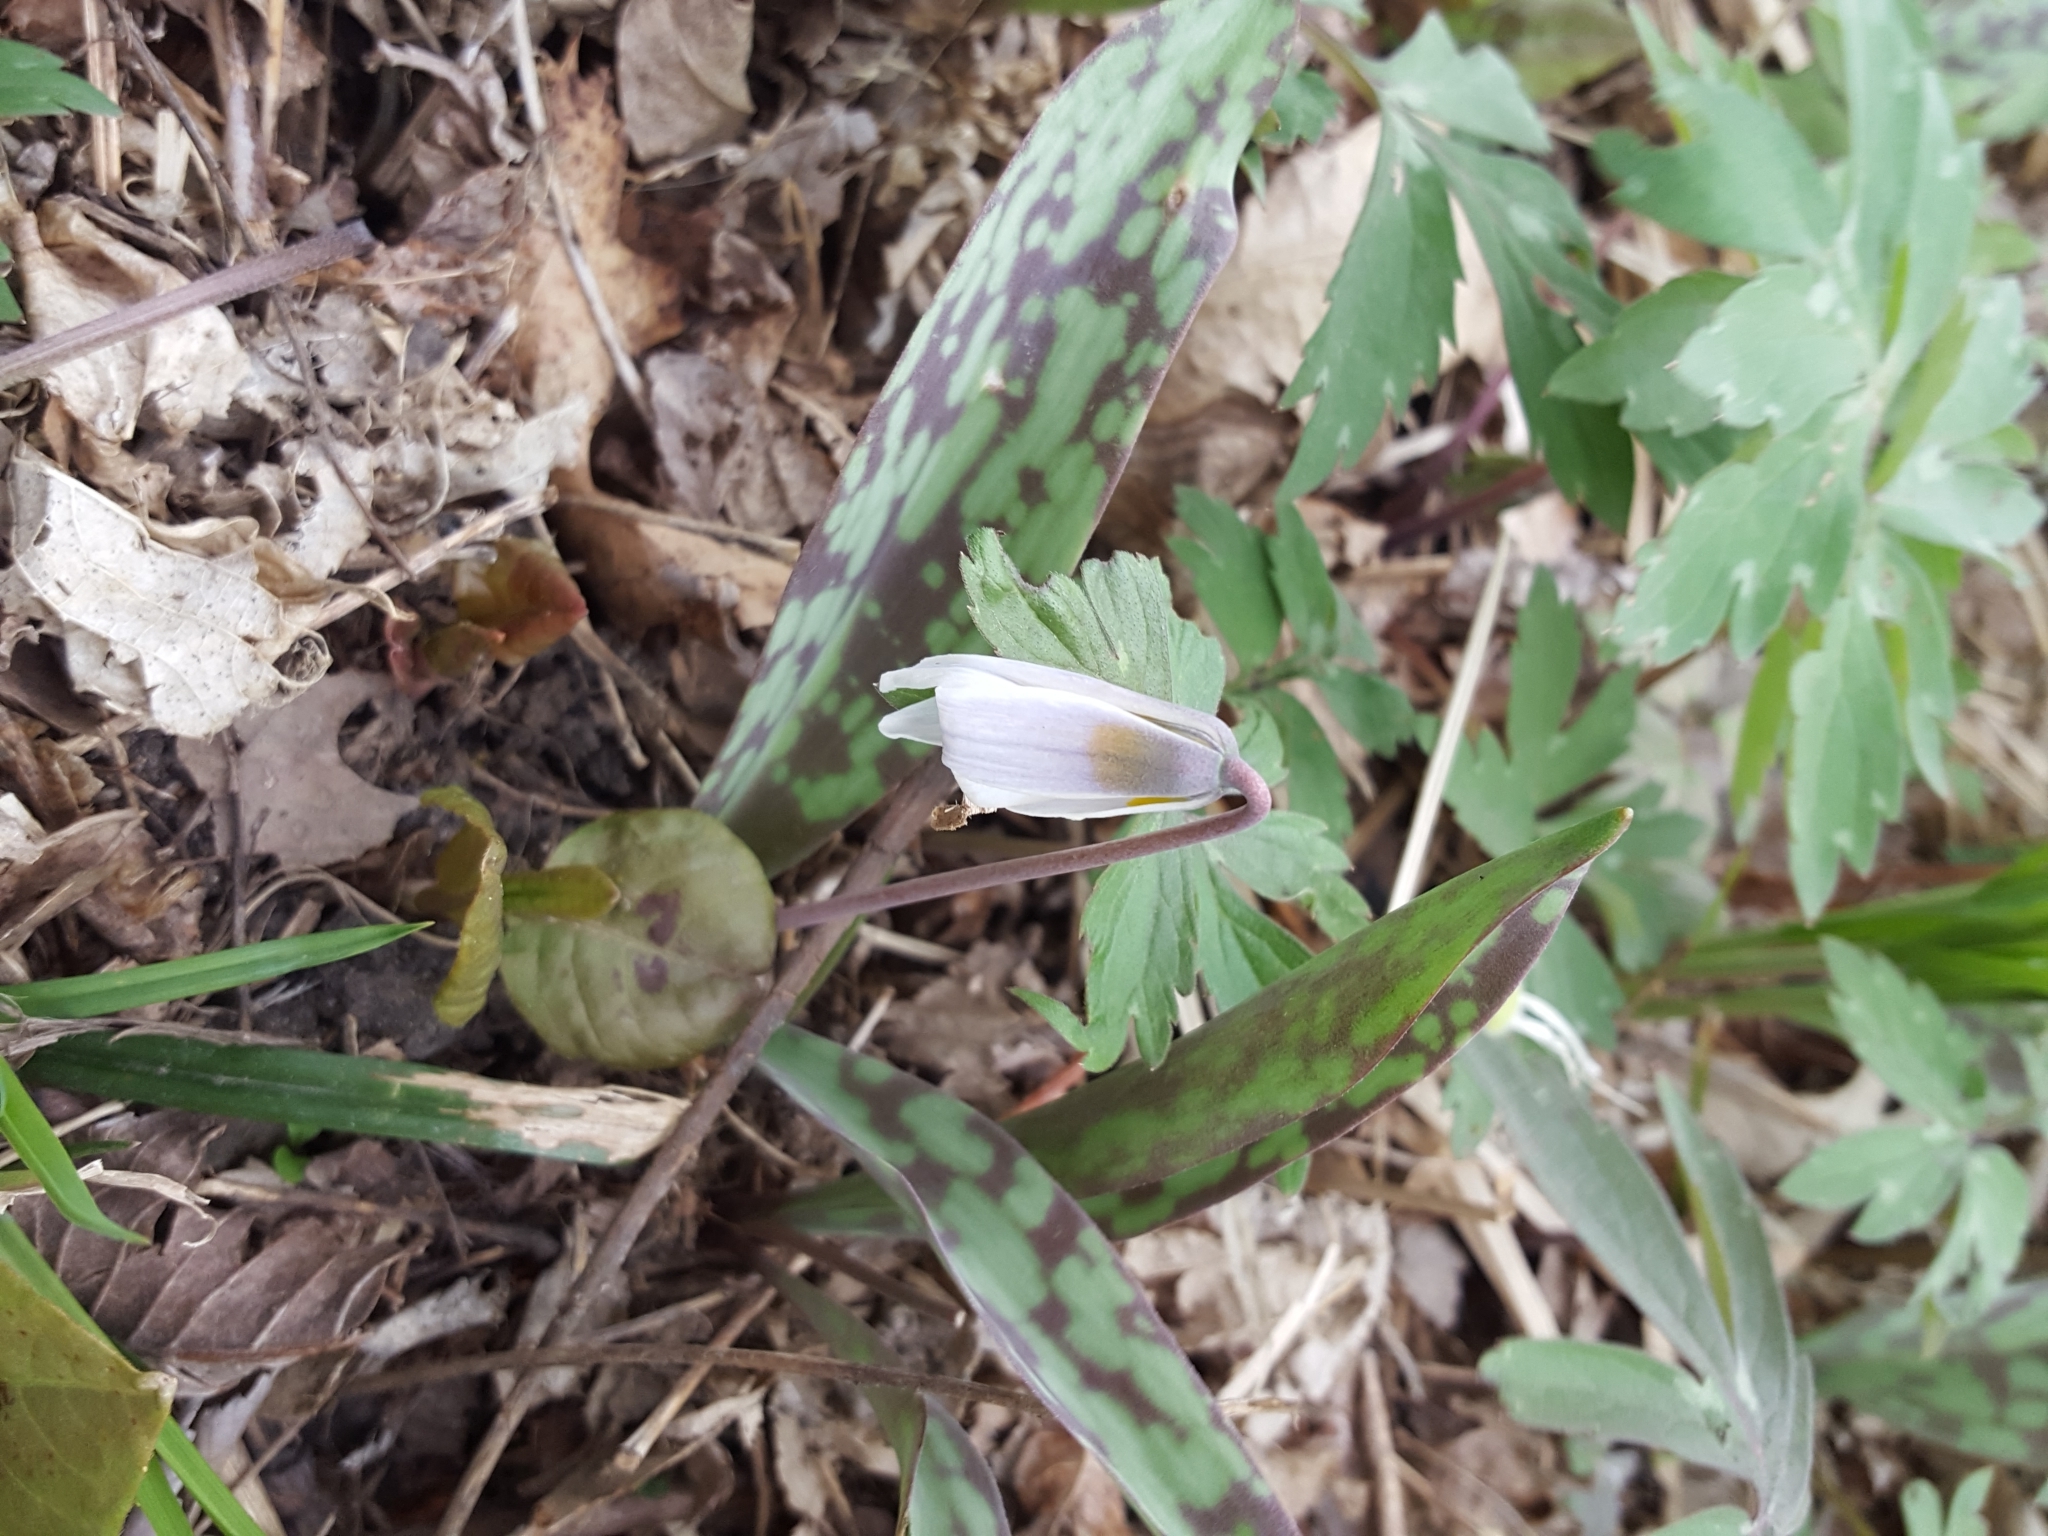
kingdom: Plantae
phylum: Tracheophyta
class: Liliopsida
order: Liliales
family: Liliaceae
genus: Erythronium
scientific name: Erythronium albidum
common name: White trout-lily
